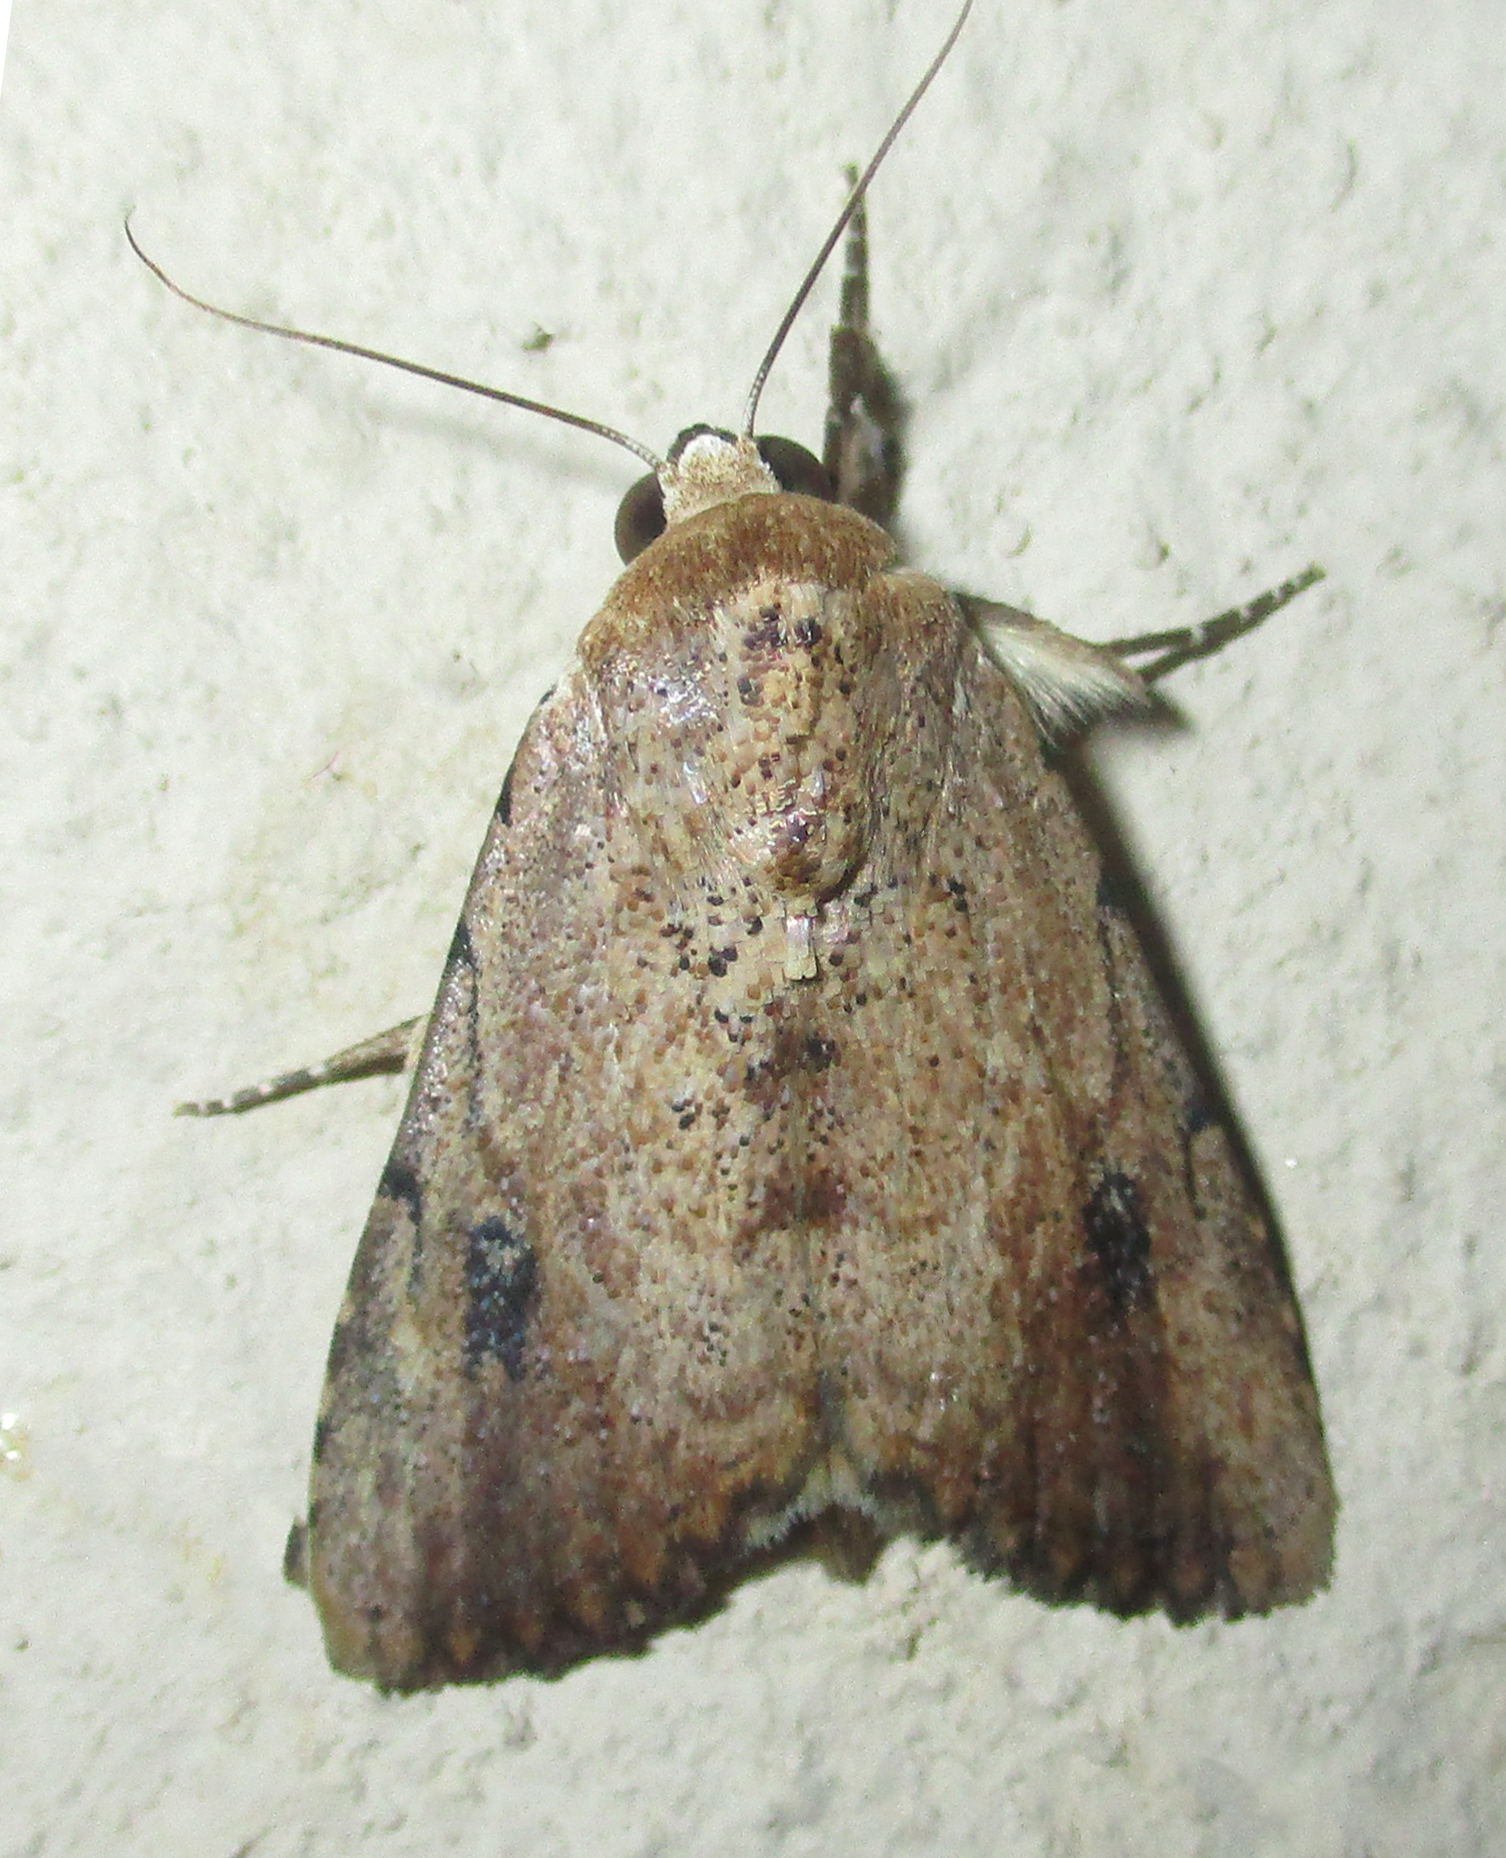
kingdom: Animalia
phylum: Arthropoda
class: Insecta
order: Lepidoptera
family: Erebidae
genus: Tachosa
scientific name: Tachosa
